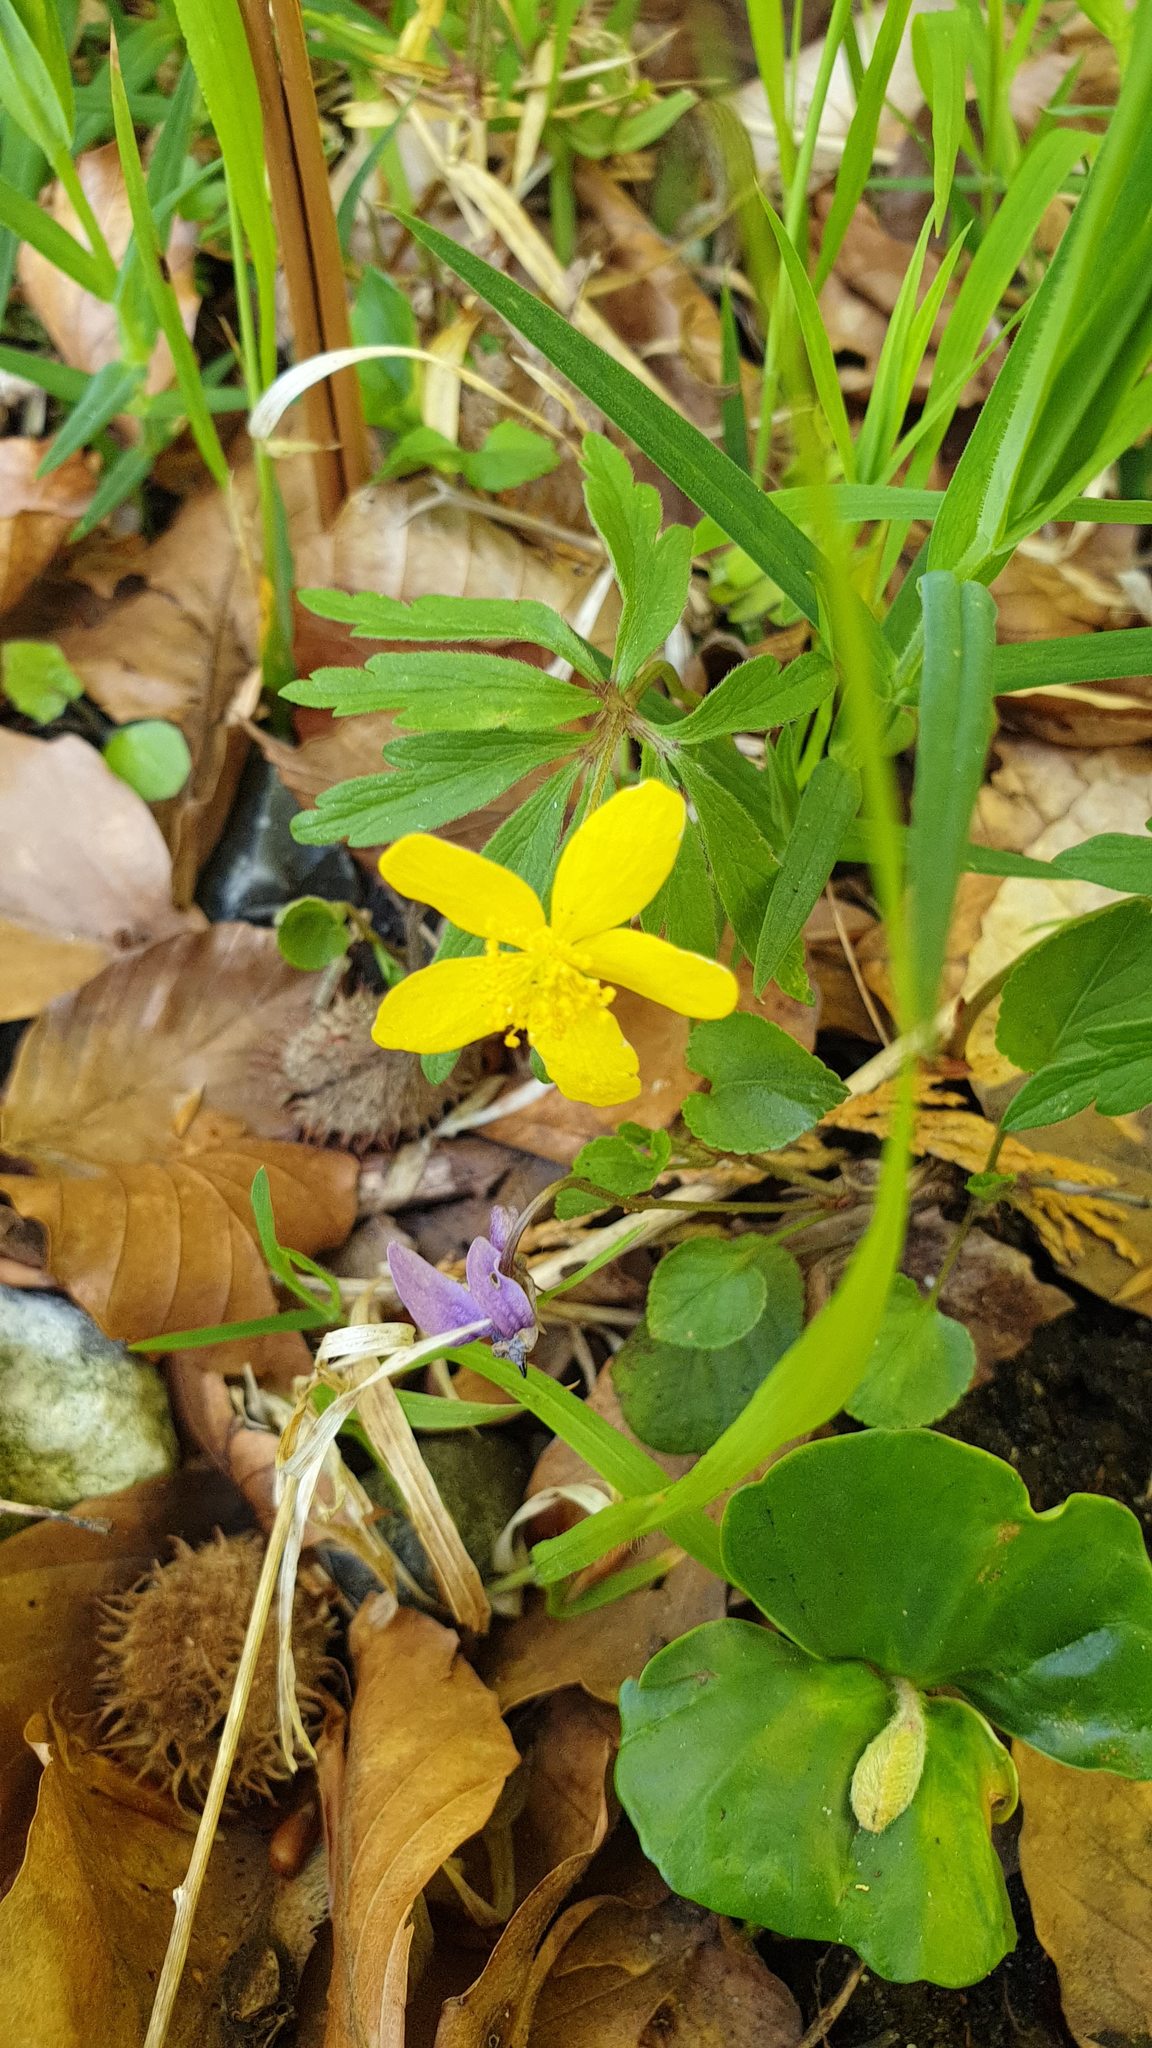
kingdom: Plantae
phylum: Tracheophyta
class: Magnoliopsida
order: Ranunculales
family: Ranunculaceae
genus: Anemone
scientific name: Anemone ranunculoides
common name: Yellow anemone
